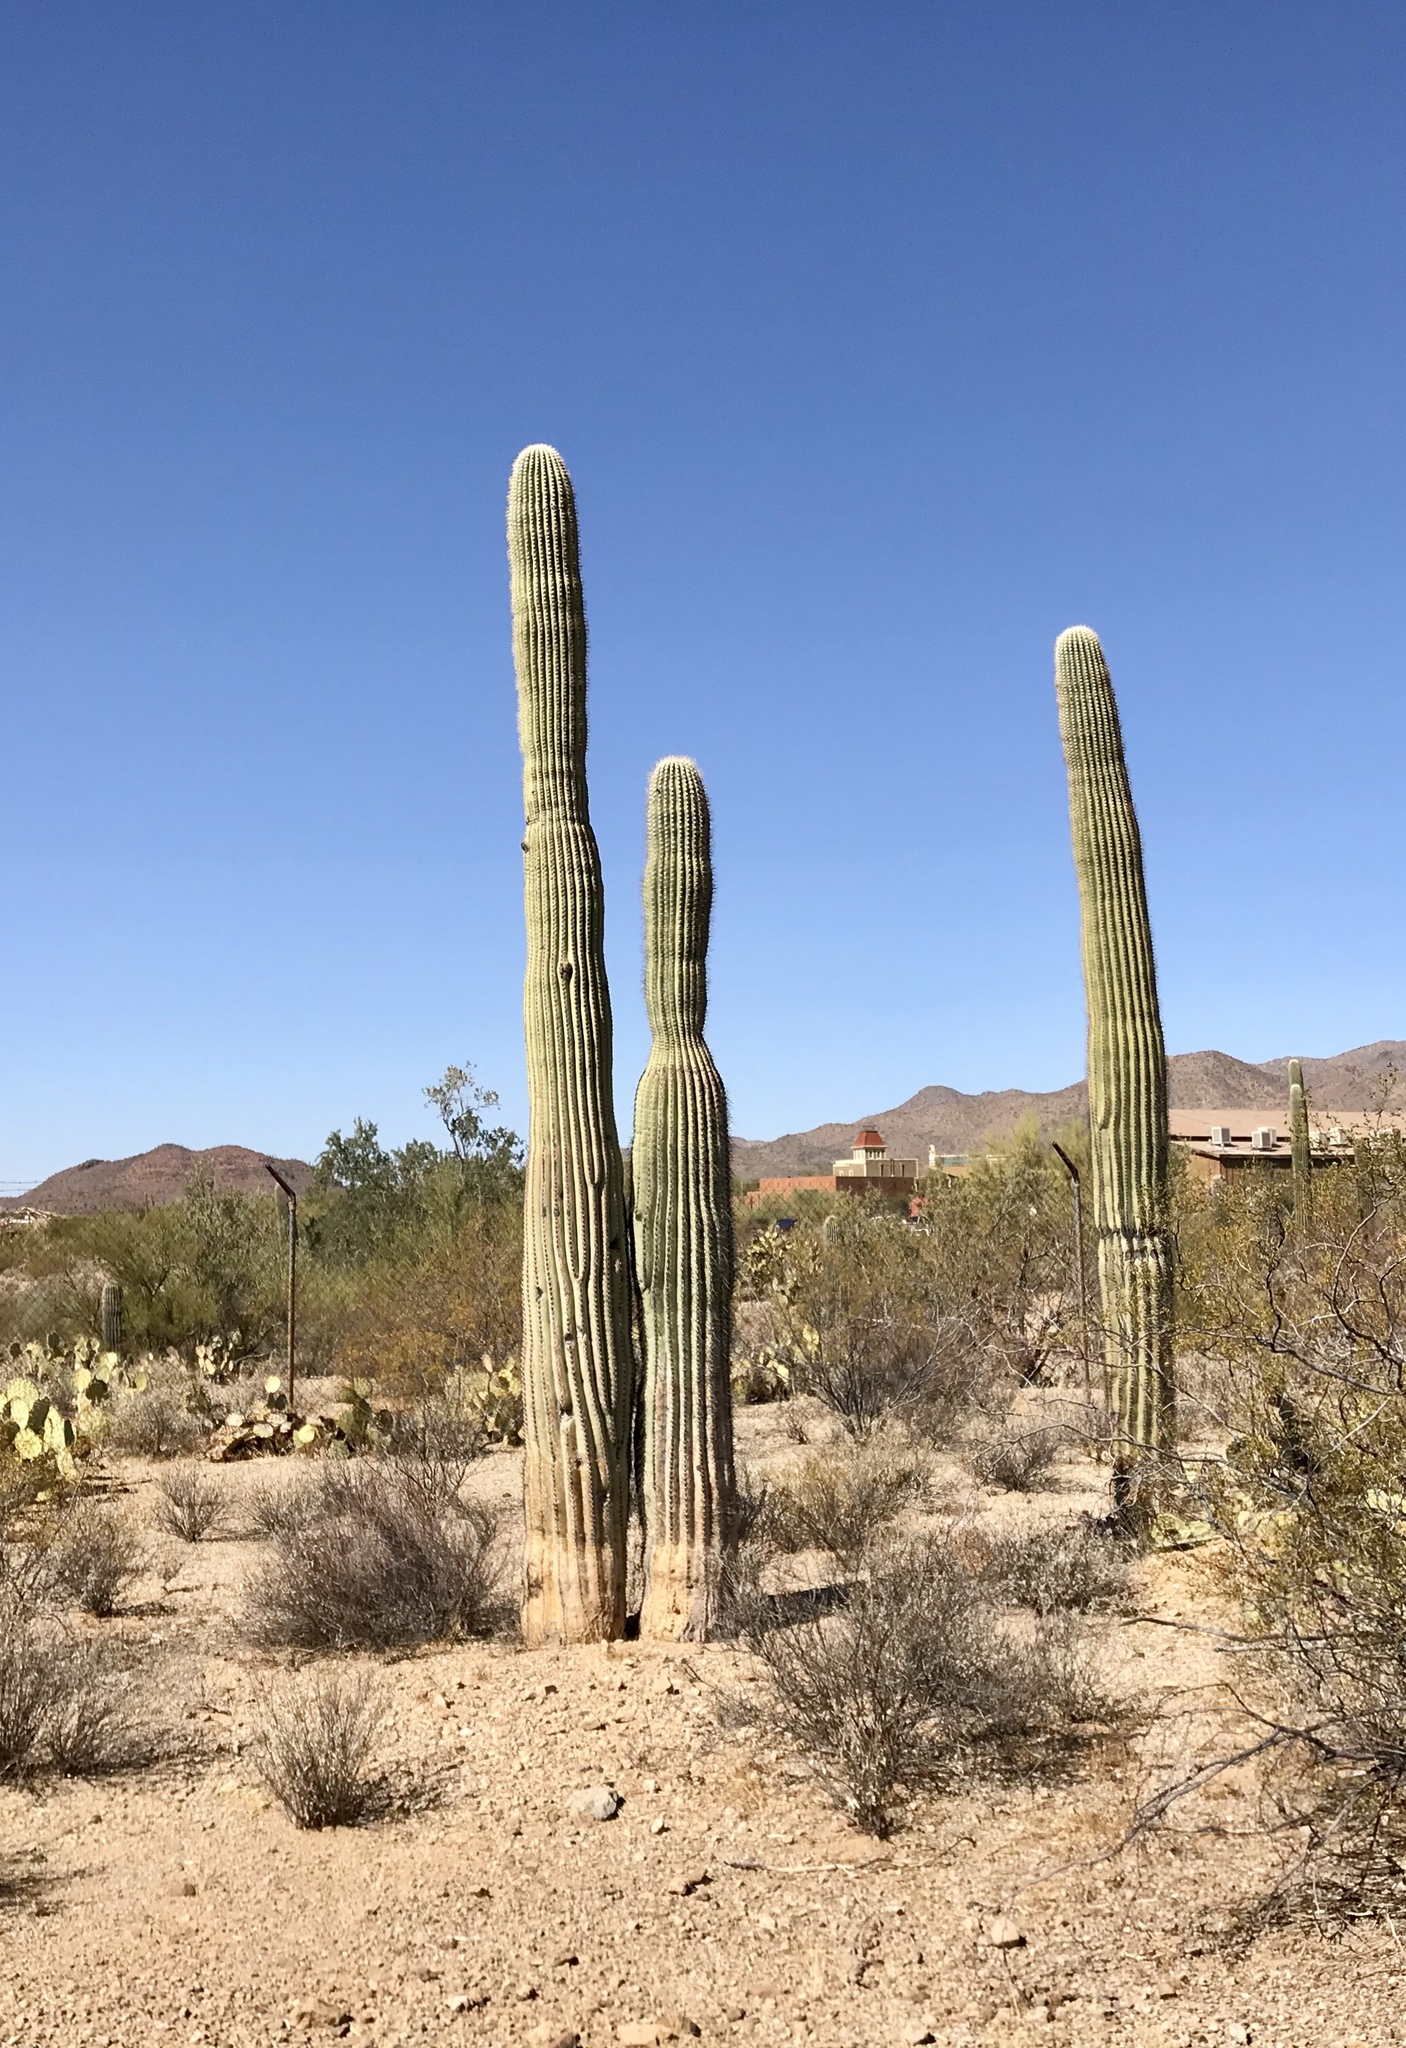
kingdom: Plantae
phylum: Tracheophyta
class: Magnoliopsida
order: Caryophyllales
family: Cactaceae
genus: Carnegiea
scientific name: Carnegiea gigantea
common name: Saguaro
